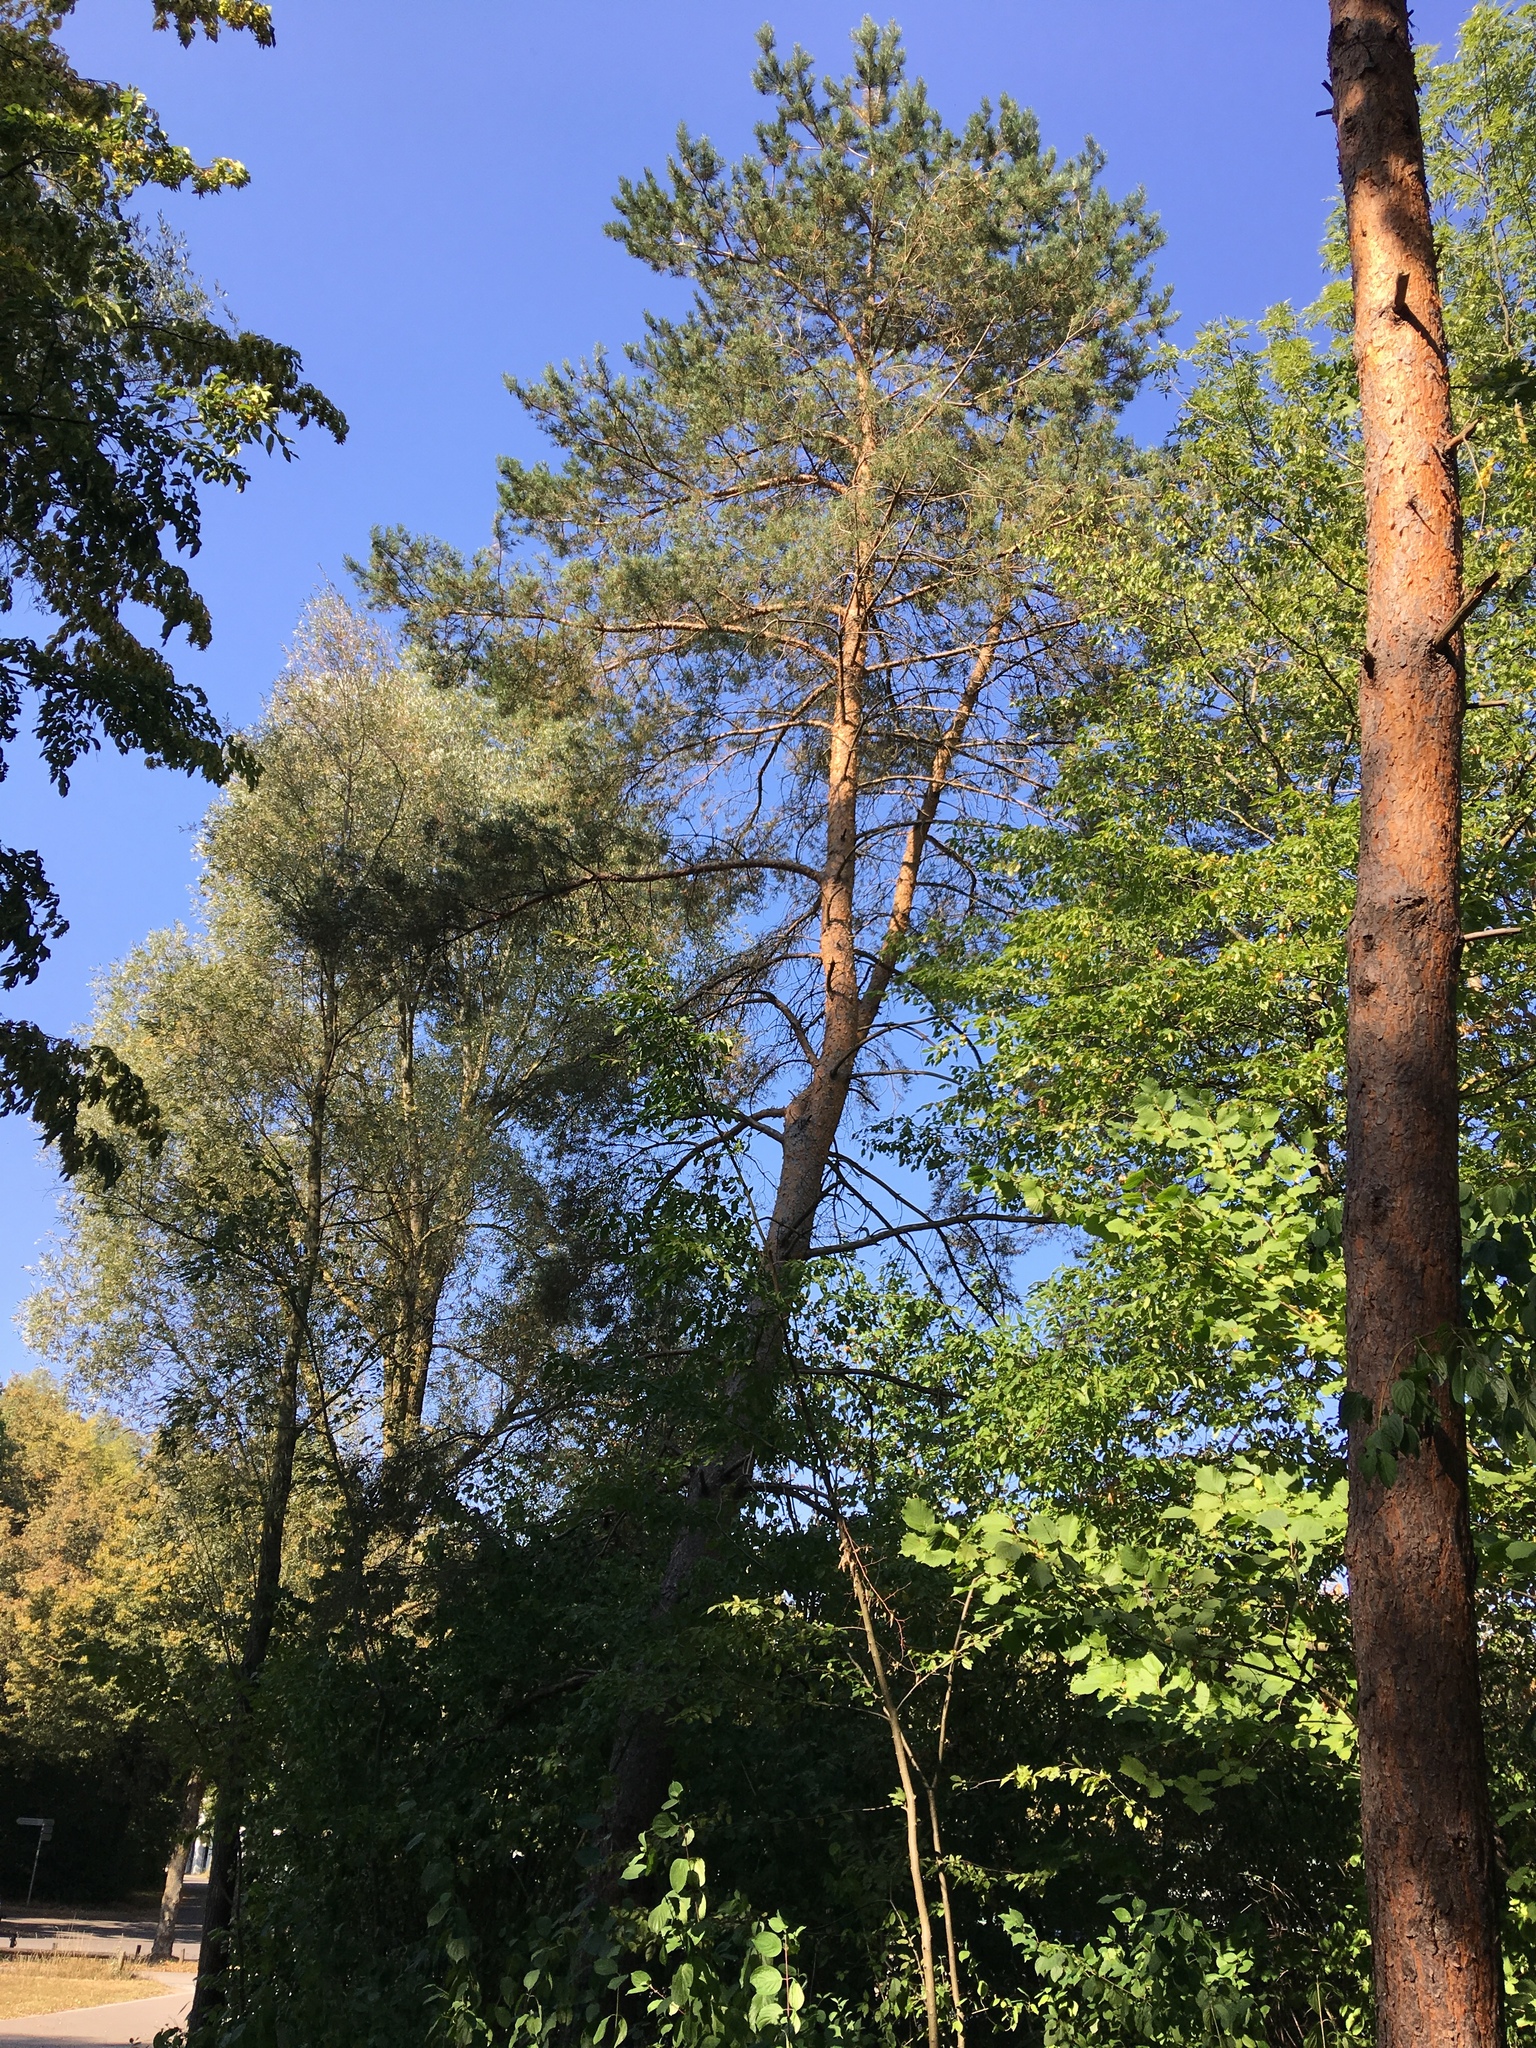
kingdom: Plantae
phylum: Tracheophyta
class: Pinopsida
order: Pinales
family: Pinaceae
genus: Pinus
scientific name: Pinus sylvestris
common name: Scots pine
